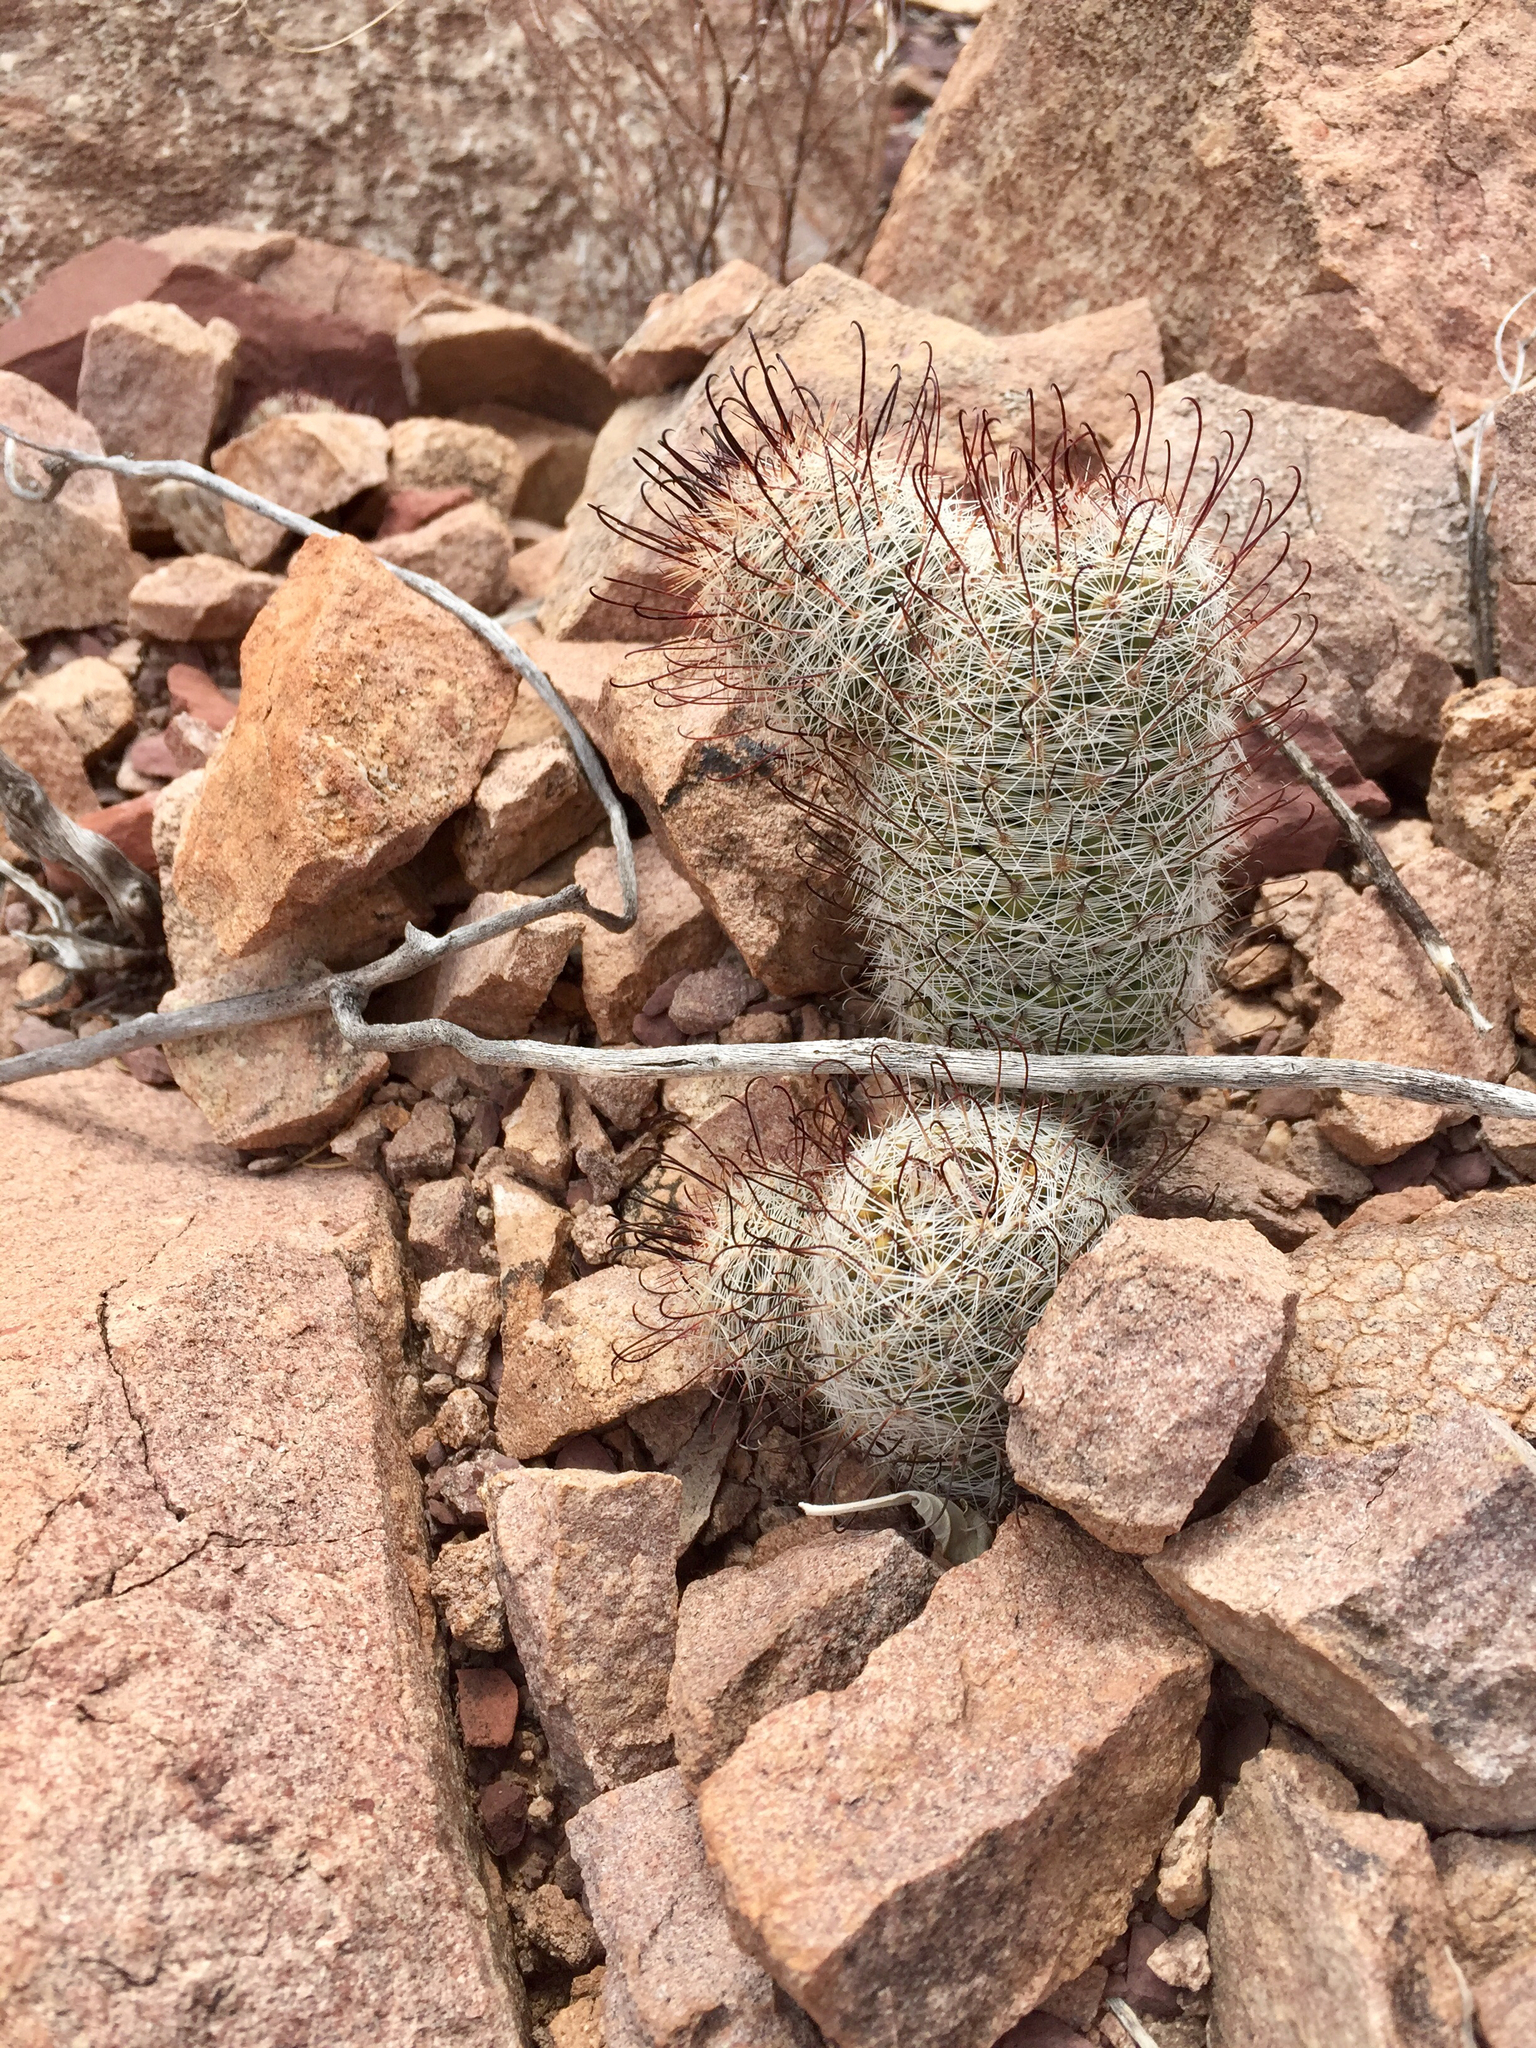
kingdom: Plantae
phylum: Tracheophyta
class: Magnoliopsida
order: Caryophyllales
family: Cactaceae
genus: Cochemiea
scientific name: Cochemiea grahamii
